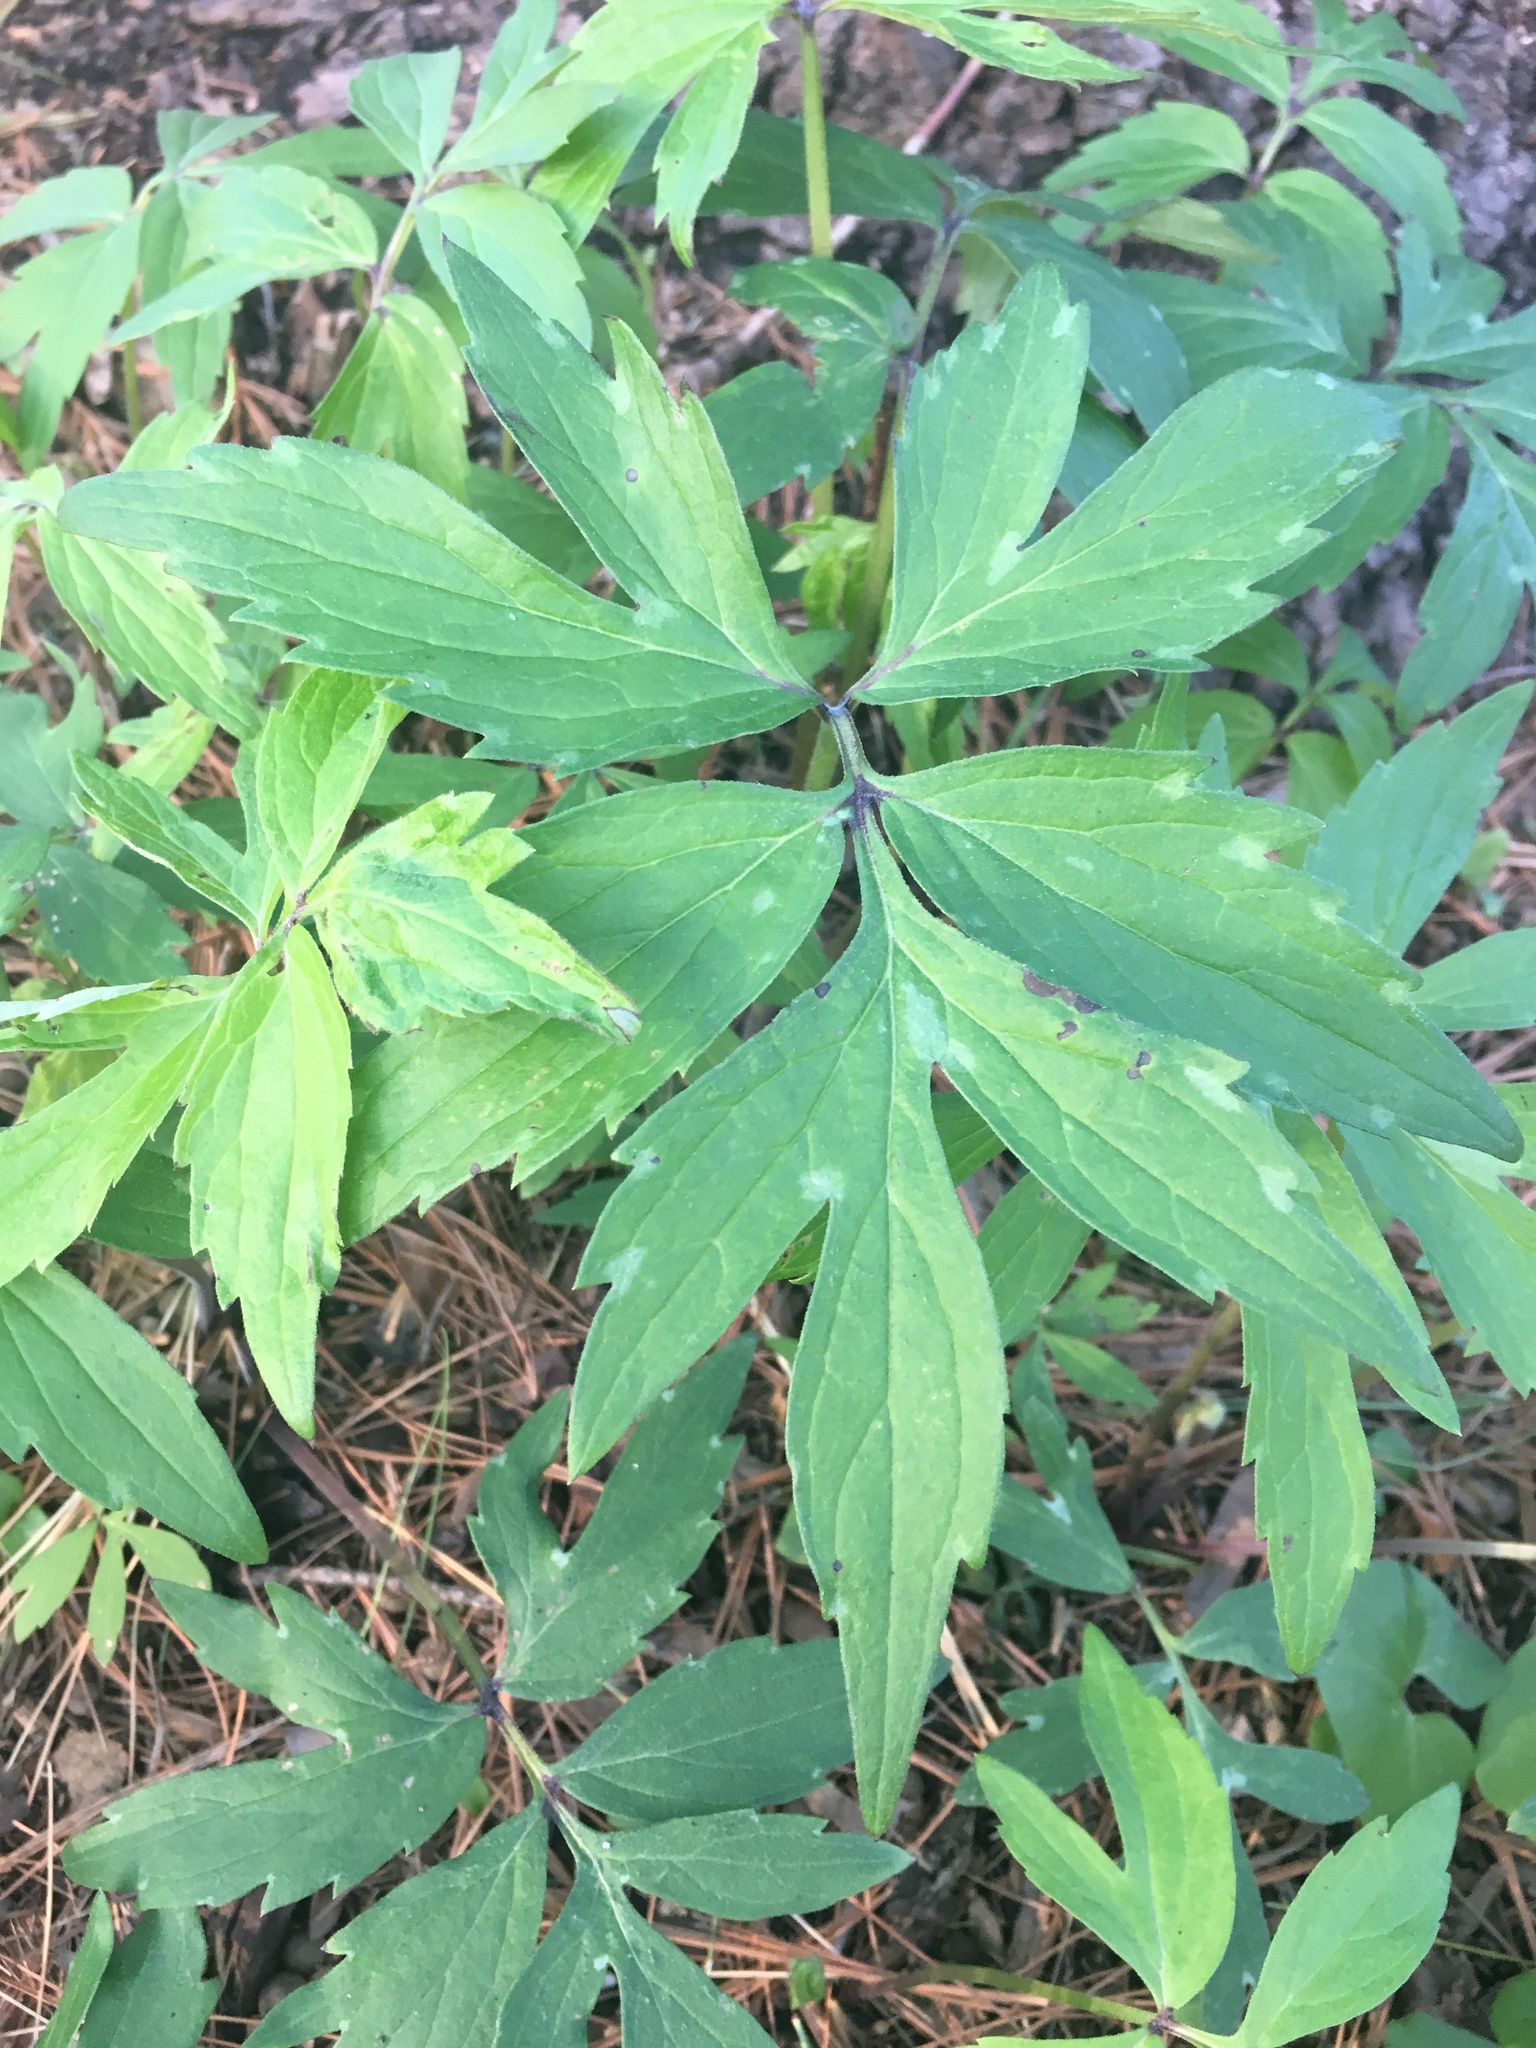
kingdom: Plantae
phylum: Tracheophyta
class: Magnoliopsida
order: Boraginales
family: Hydrophyllaceae
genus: Hydrophyllum
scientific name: Hydrophyllum virginianum
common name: Virginia waterleaf
